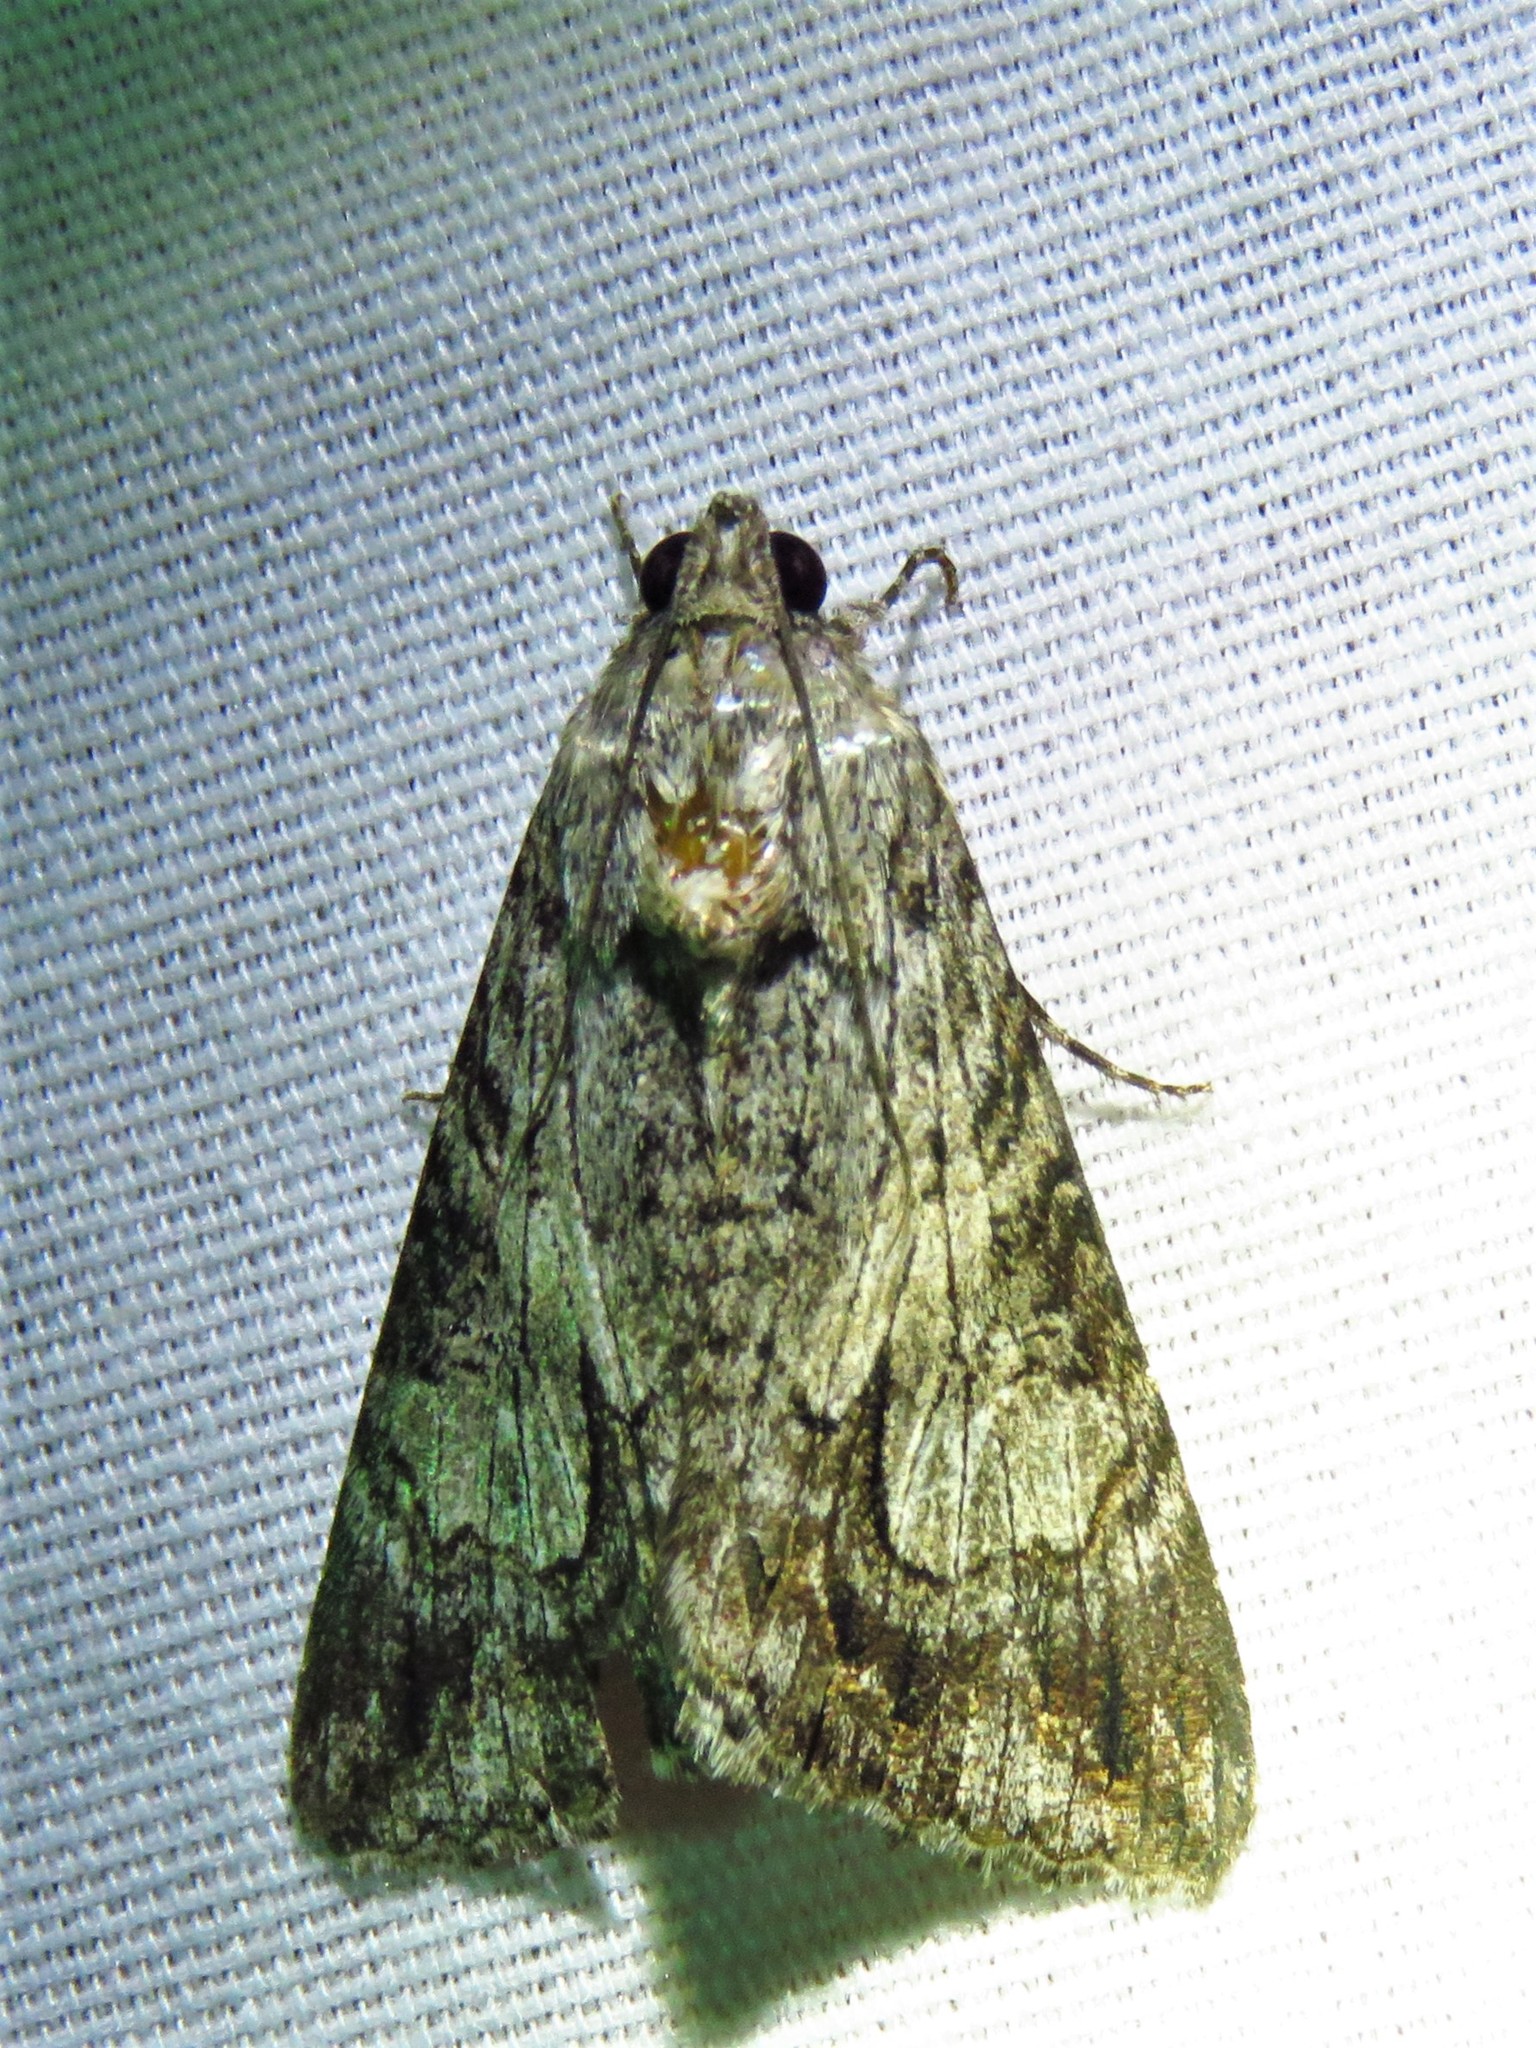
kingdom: Animalia
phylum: Arthropoda
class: Insecta
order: Lepidoptera
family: Erebidae
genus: Melipotis
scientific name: Melipotis jucunda
